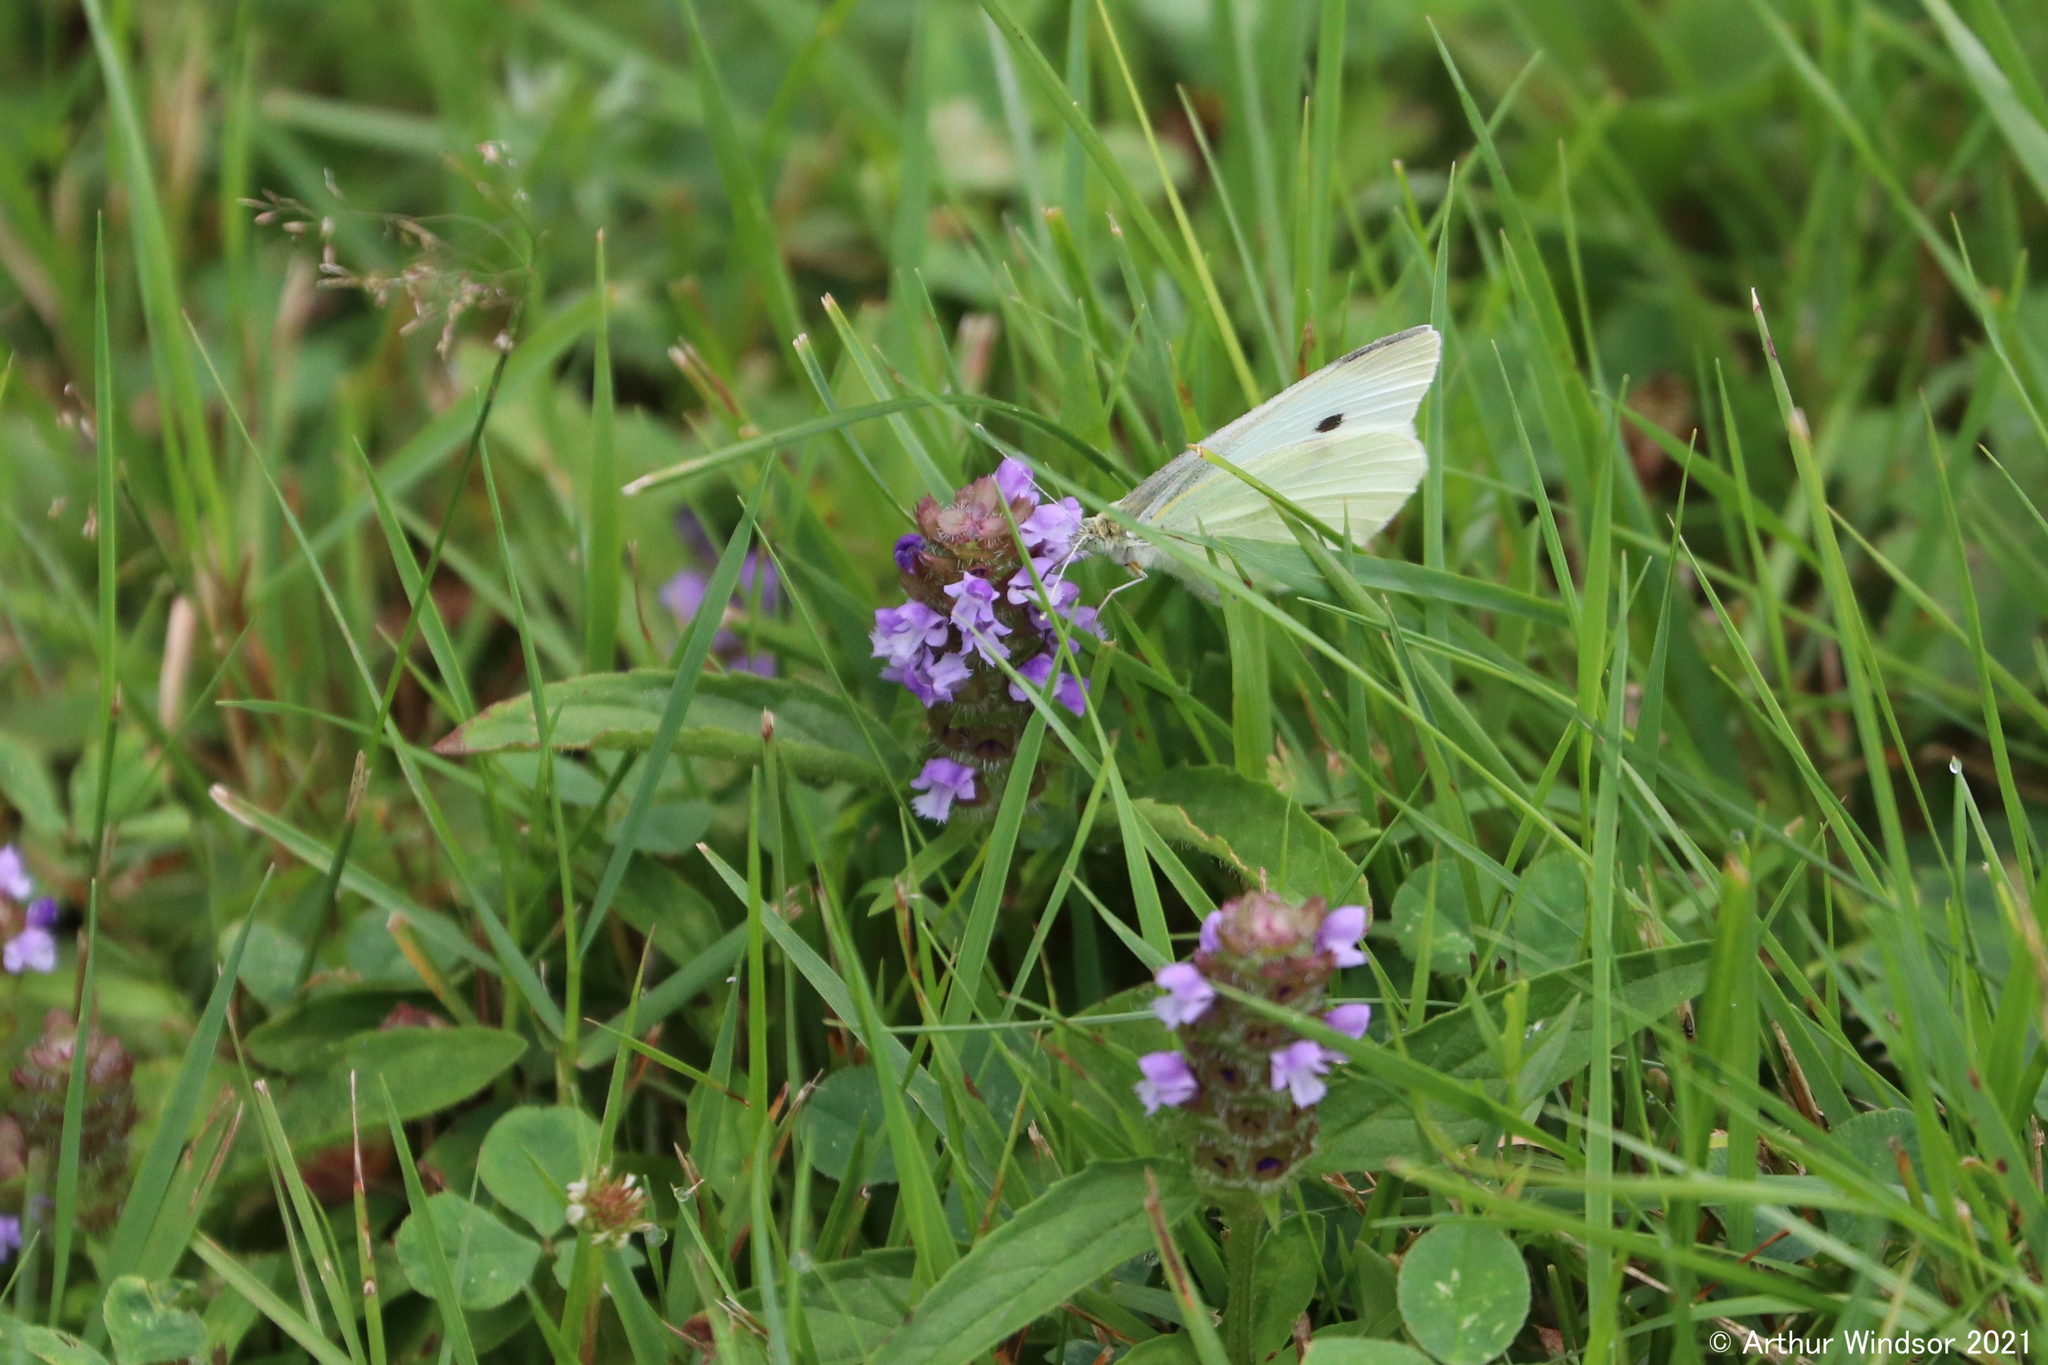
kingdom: Animalia
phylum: Arthropoda
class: Insecta
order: Lepidoptera
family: Pieridae
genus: Pieris
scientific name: Pieris rapae
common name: Small white
